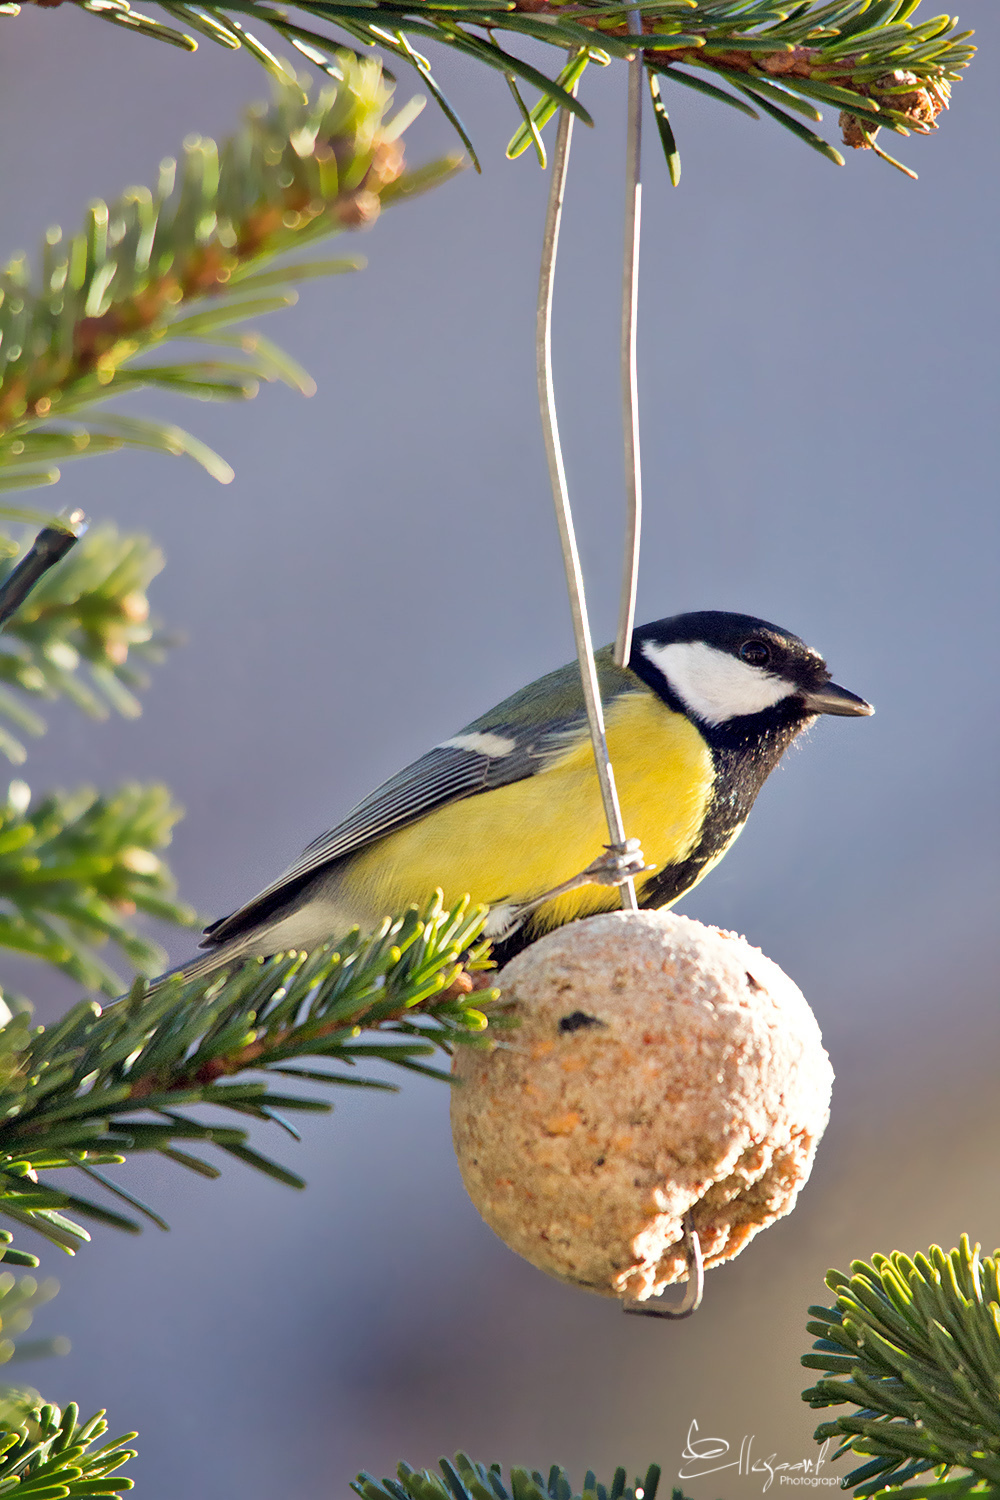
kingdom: Animalia
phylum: Chordata
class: Aves
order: Passeriformes
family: Paridae
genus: Parus
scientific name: Parus major
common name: Great tit
